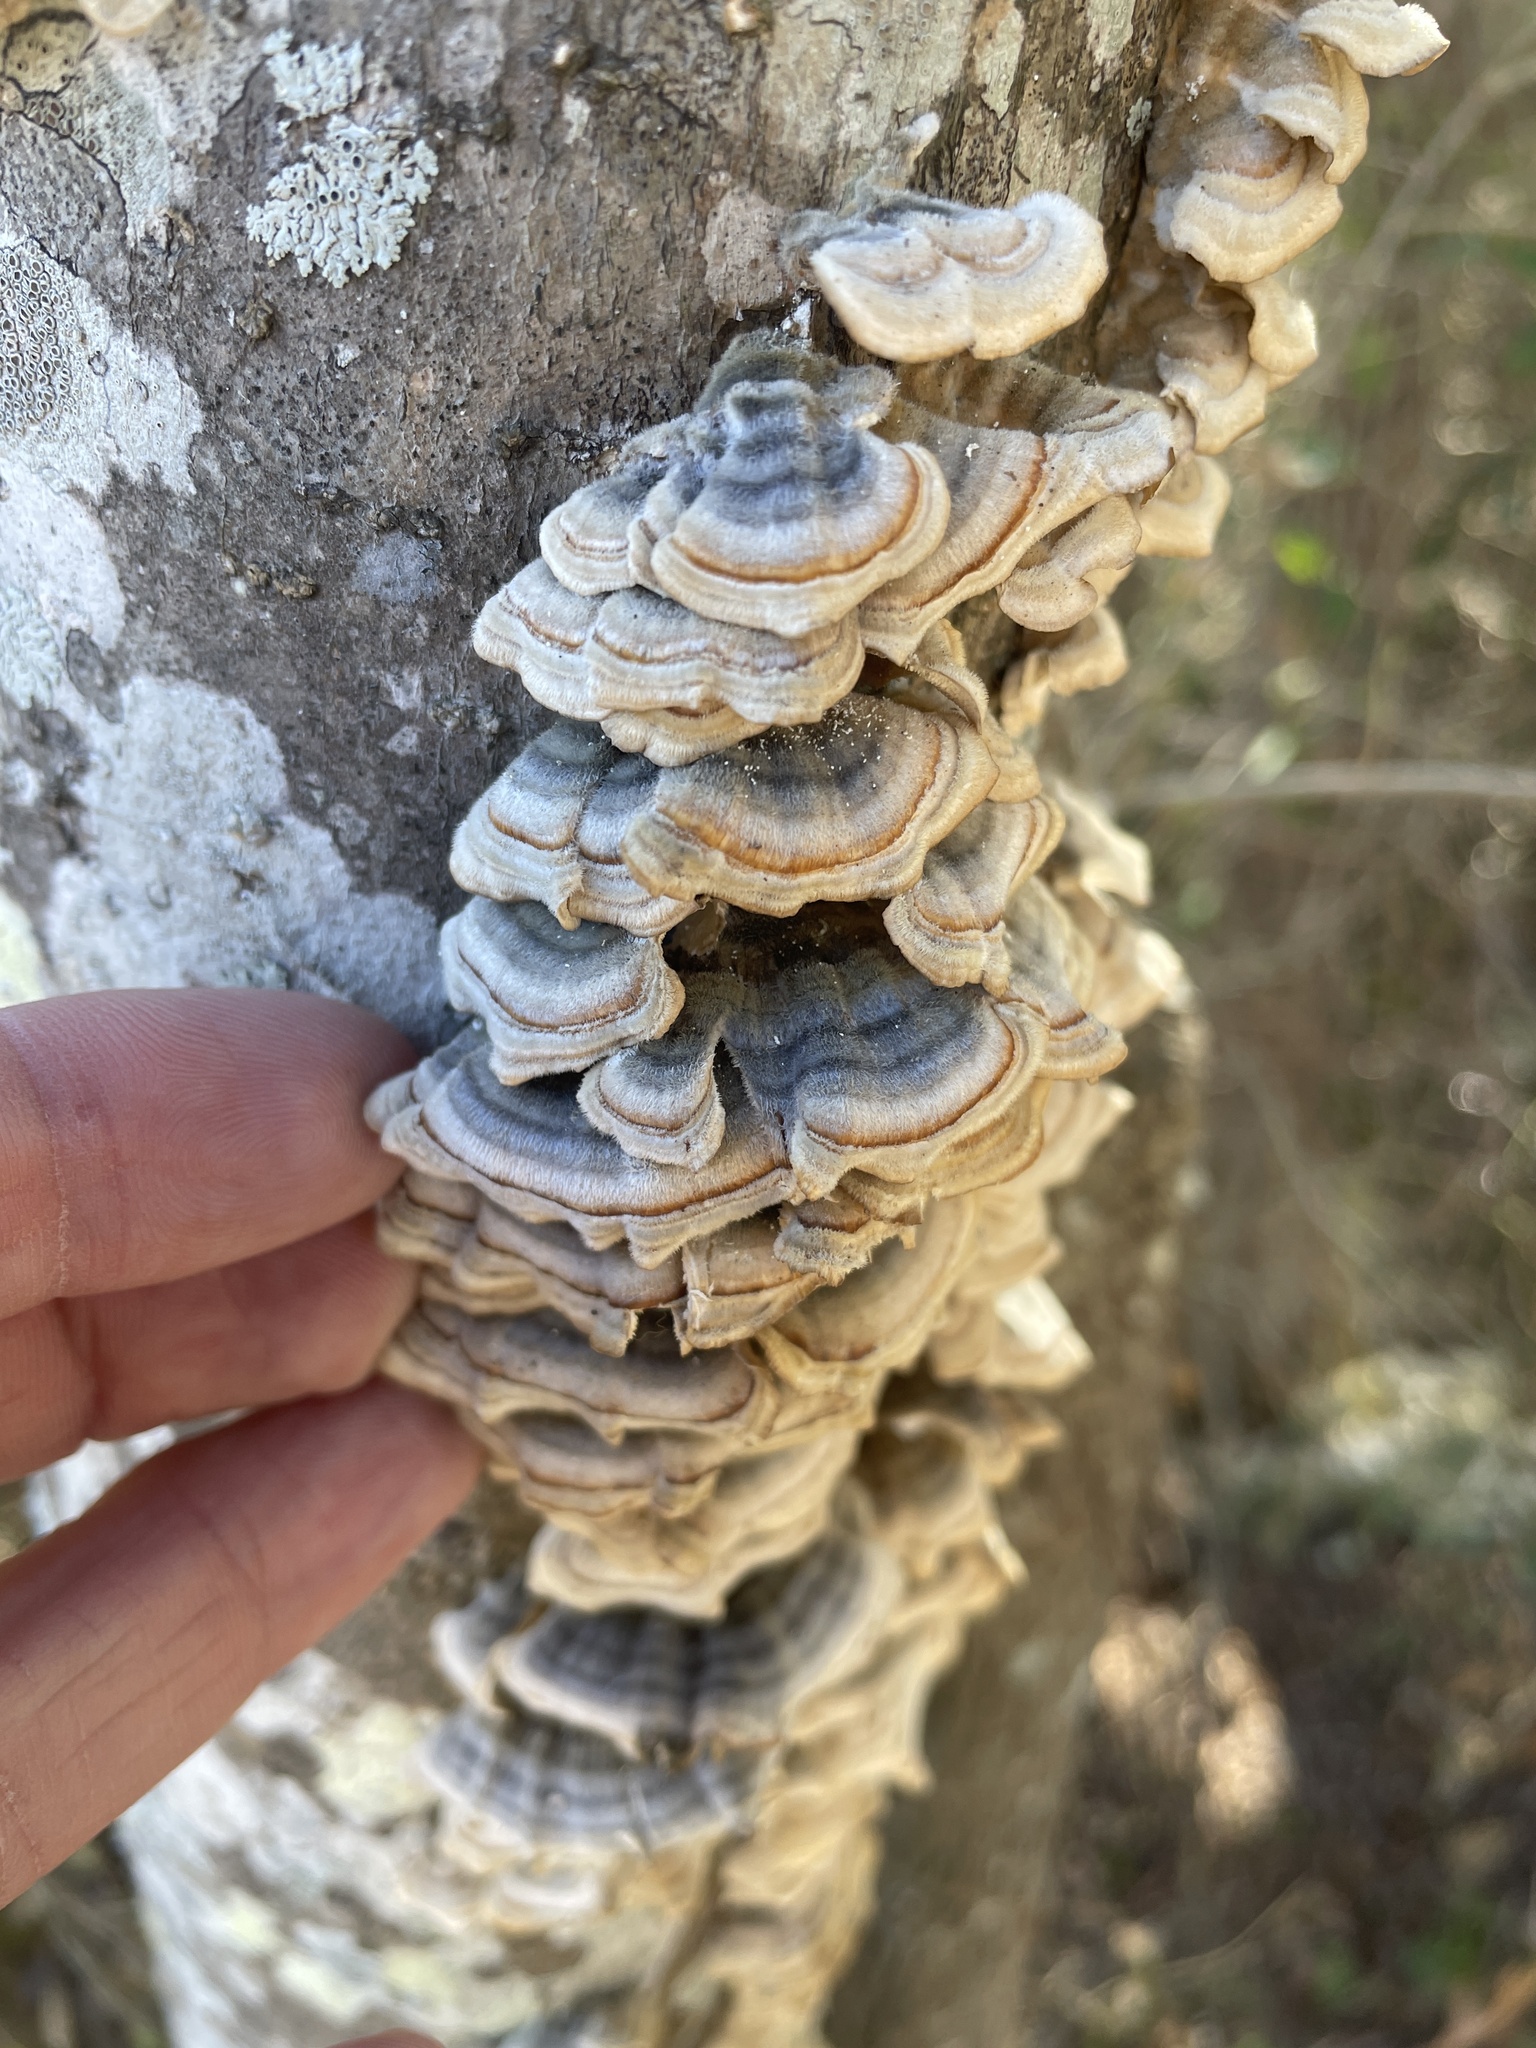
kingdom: Fungi
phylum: Basidiomycota
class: Agaricomycetes
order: Polyporales
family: Polyporaceae
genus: Trametes
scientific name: Trametes versicolor
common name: Turkeytail
